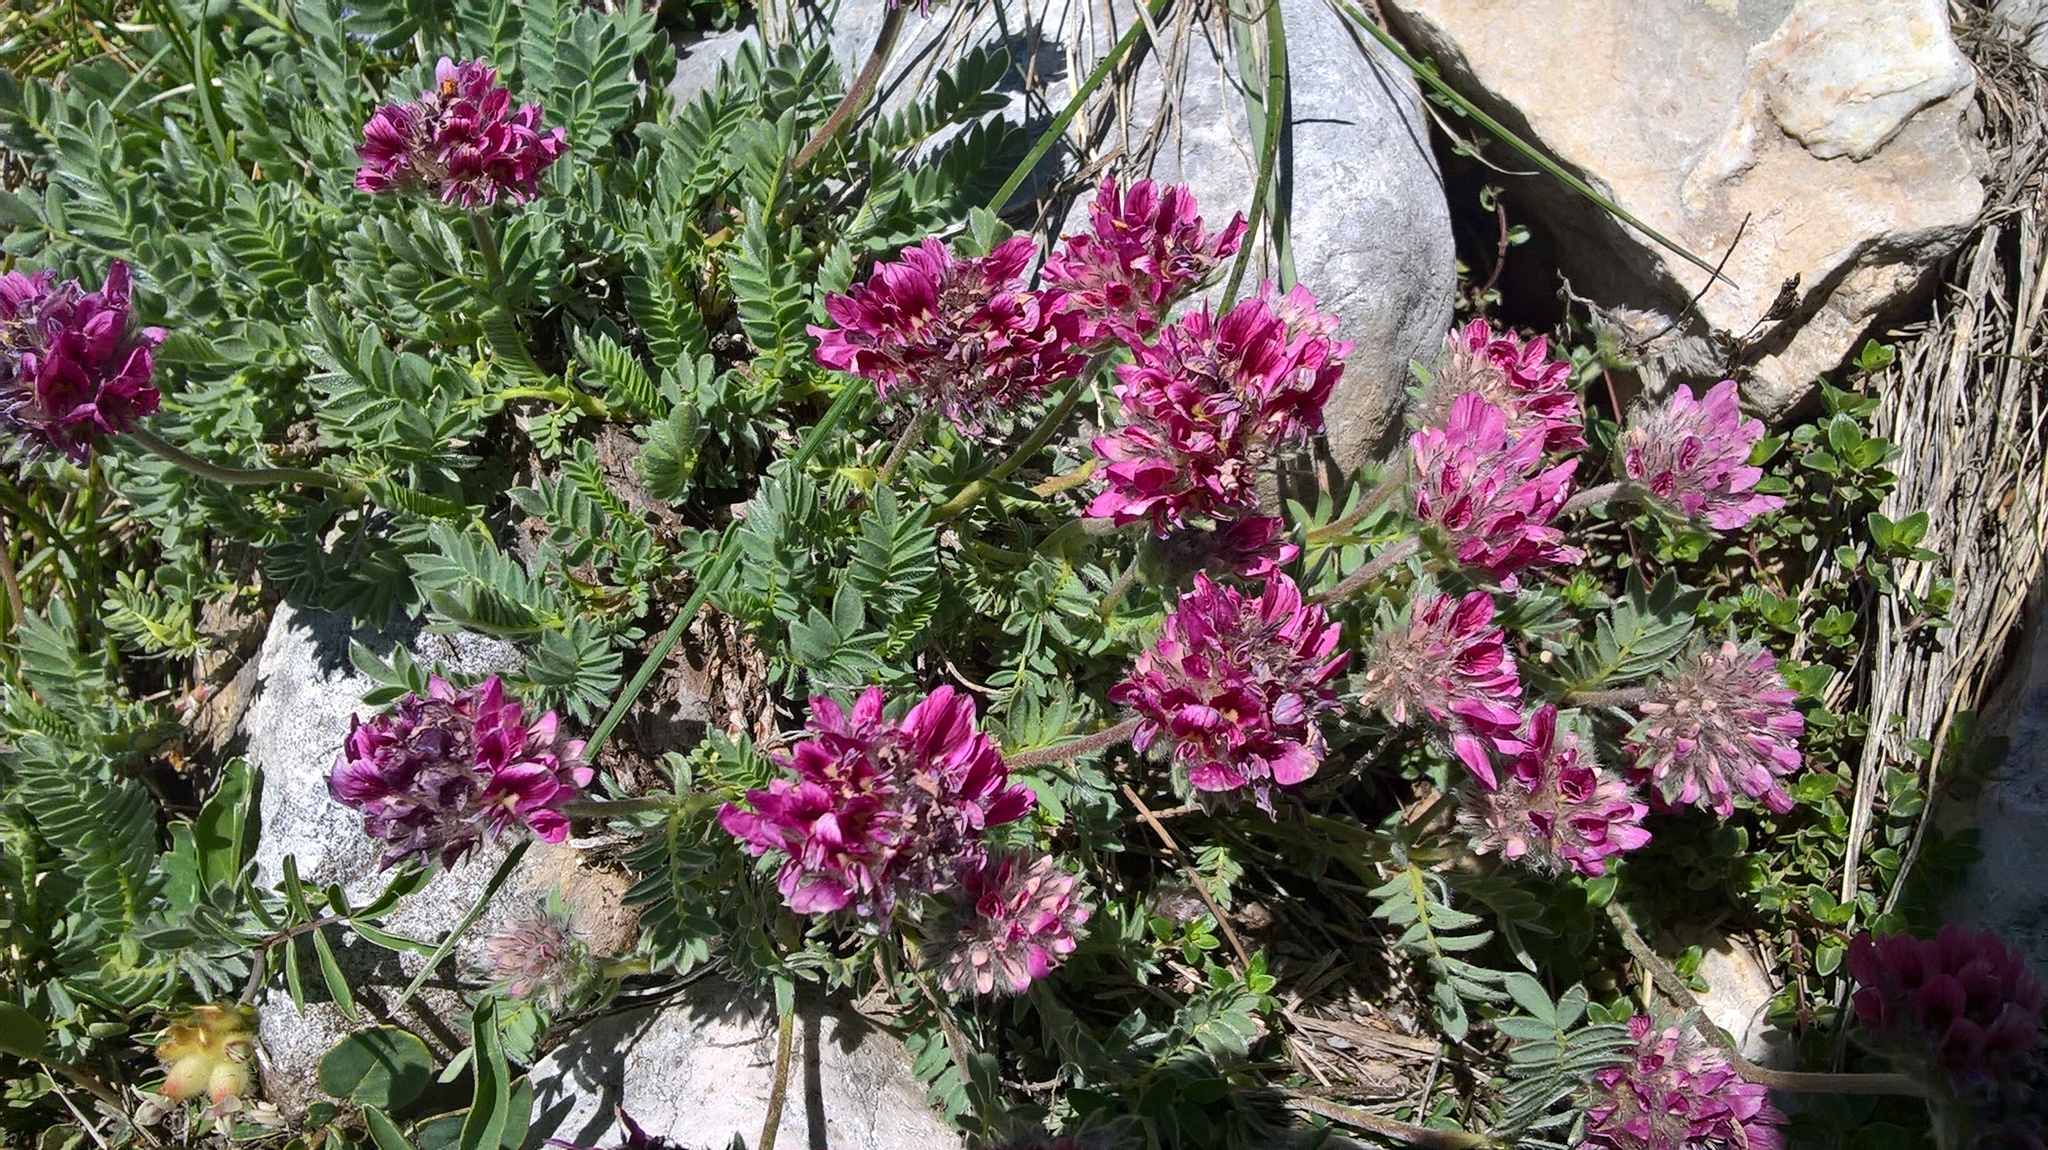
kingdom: Plantae
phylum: Tracheophyta
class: Magnoliopsida
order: Fabales
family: Fabaceae
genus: Anthyllis
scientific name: Anthyllis montana
